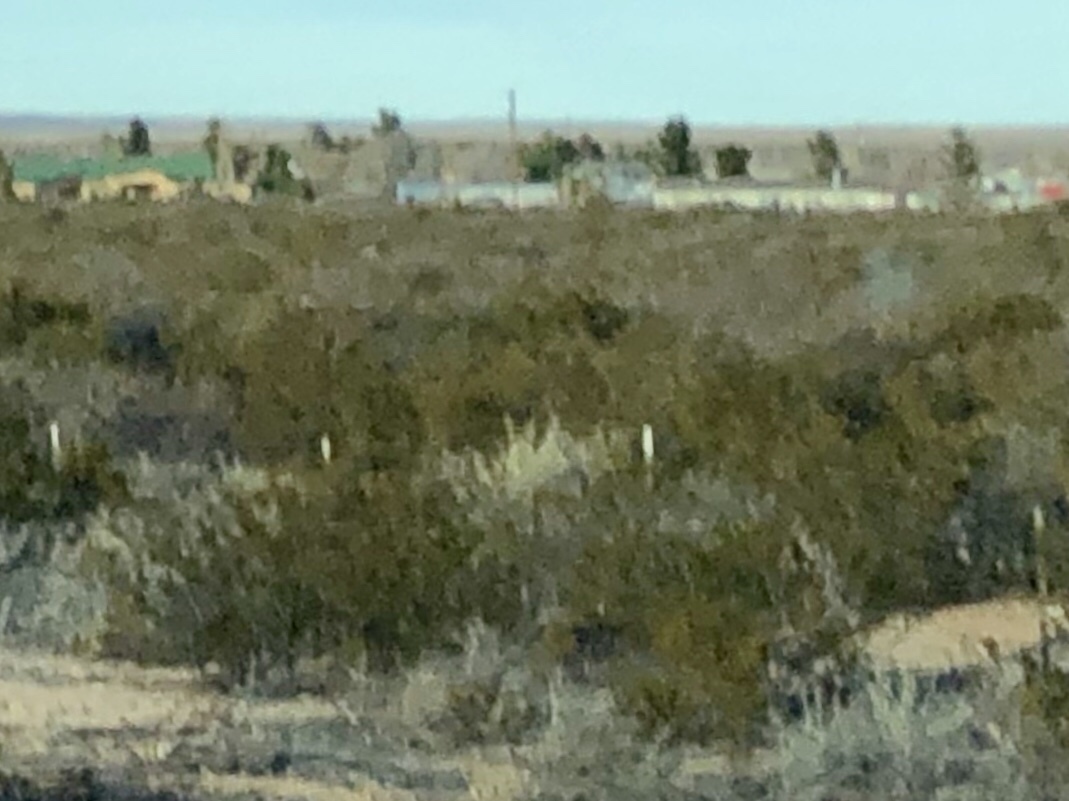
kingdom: Plantae
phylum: Tracheophyta
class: Magnoliopsida
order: Zygophyllales
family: Zygophyllaceae
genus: Larrea
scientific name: Larrea tridentata
